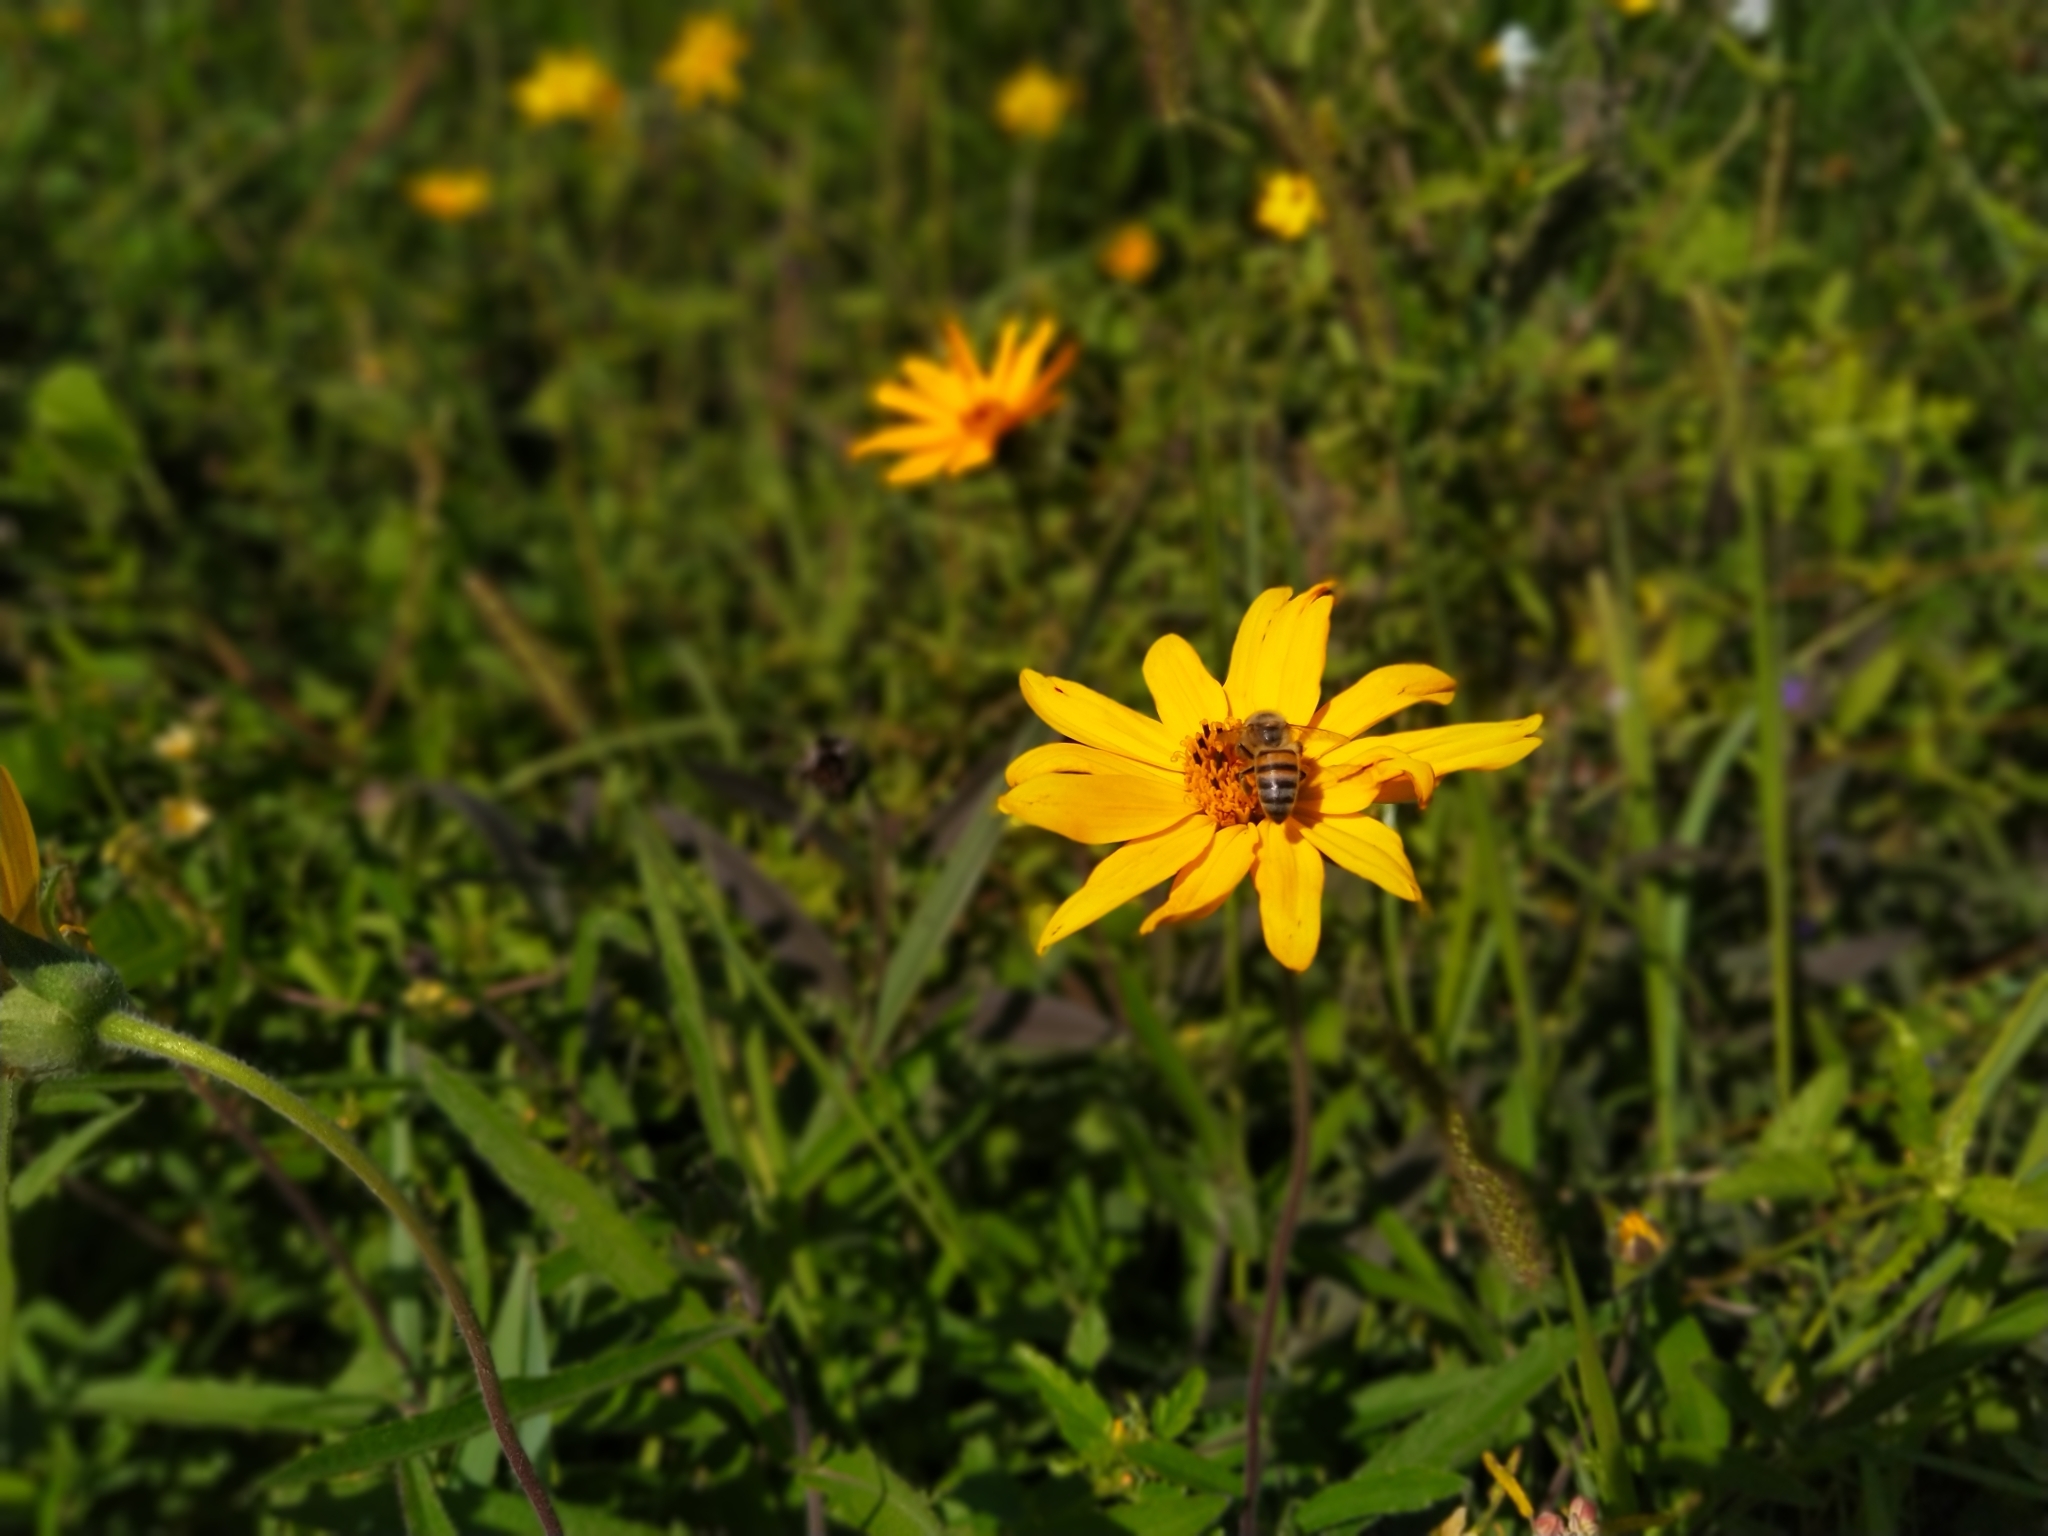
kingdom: Plantae
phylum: Tracheophyta
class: Magnoliopsida
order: Asterales
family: Asteraceae
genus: Wedelia
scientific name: Wedelia pascalioides
